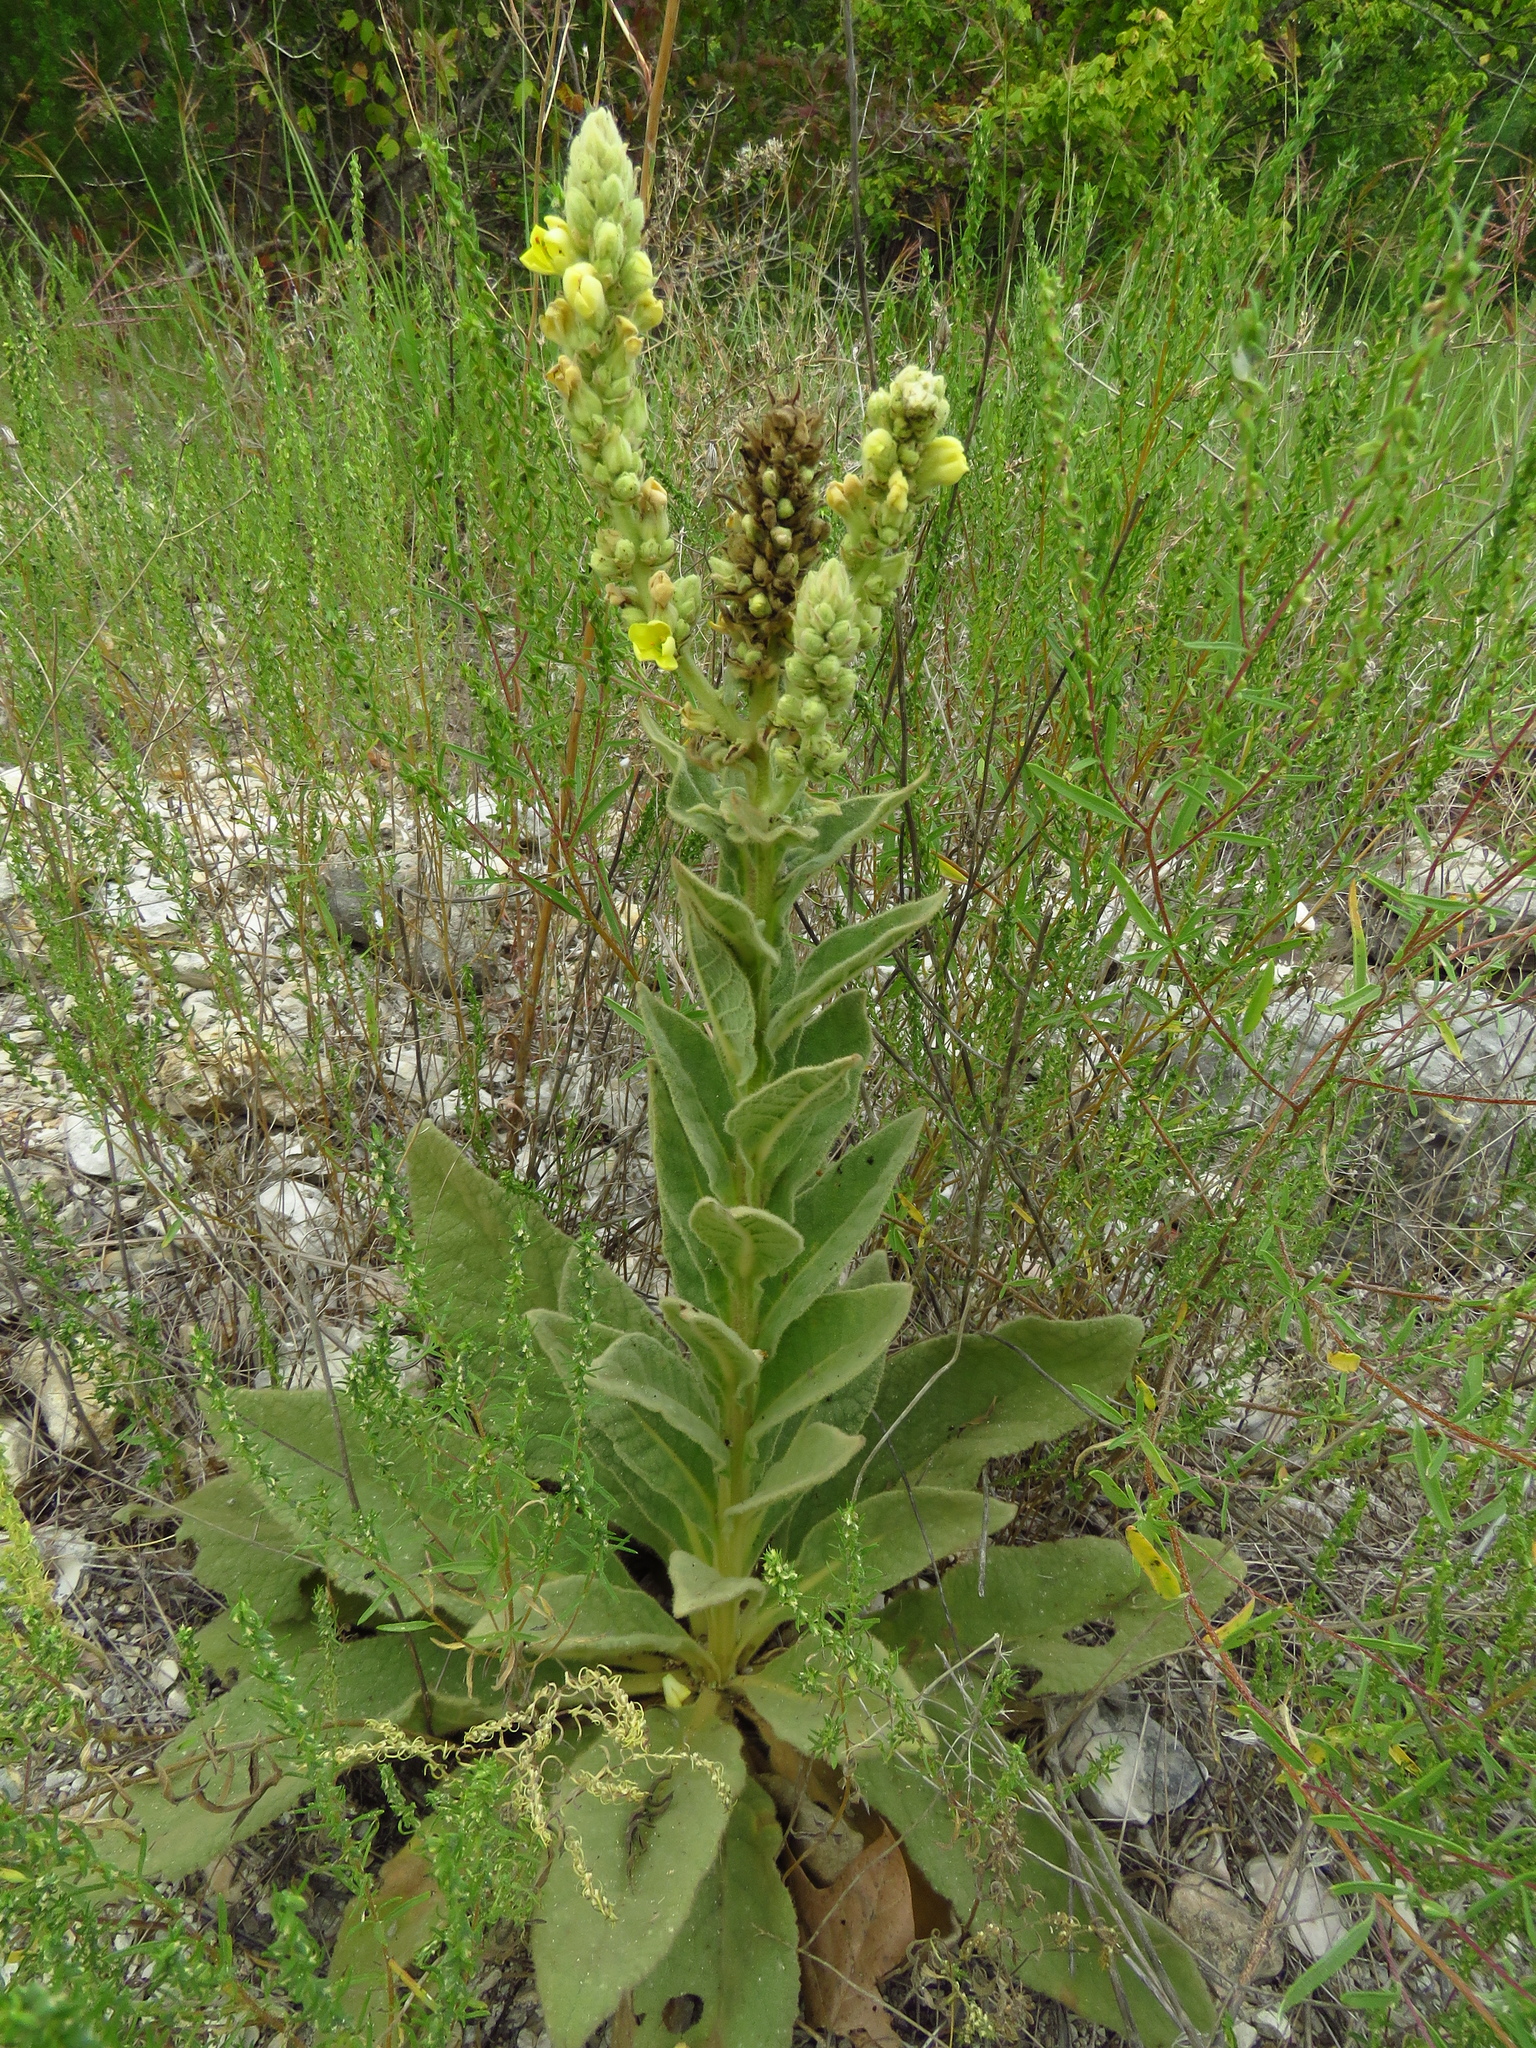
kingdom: Plantae
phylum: Tracheophyta
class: Magnoliopsida
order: Lamiales
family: Scrophulariaceae
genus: Verbascum
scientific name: Verbascum thapsus
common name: Common mullein
